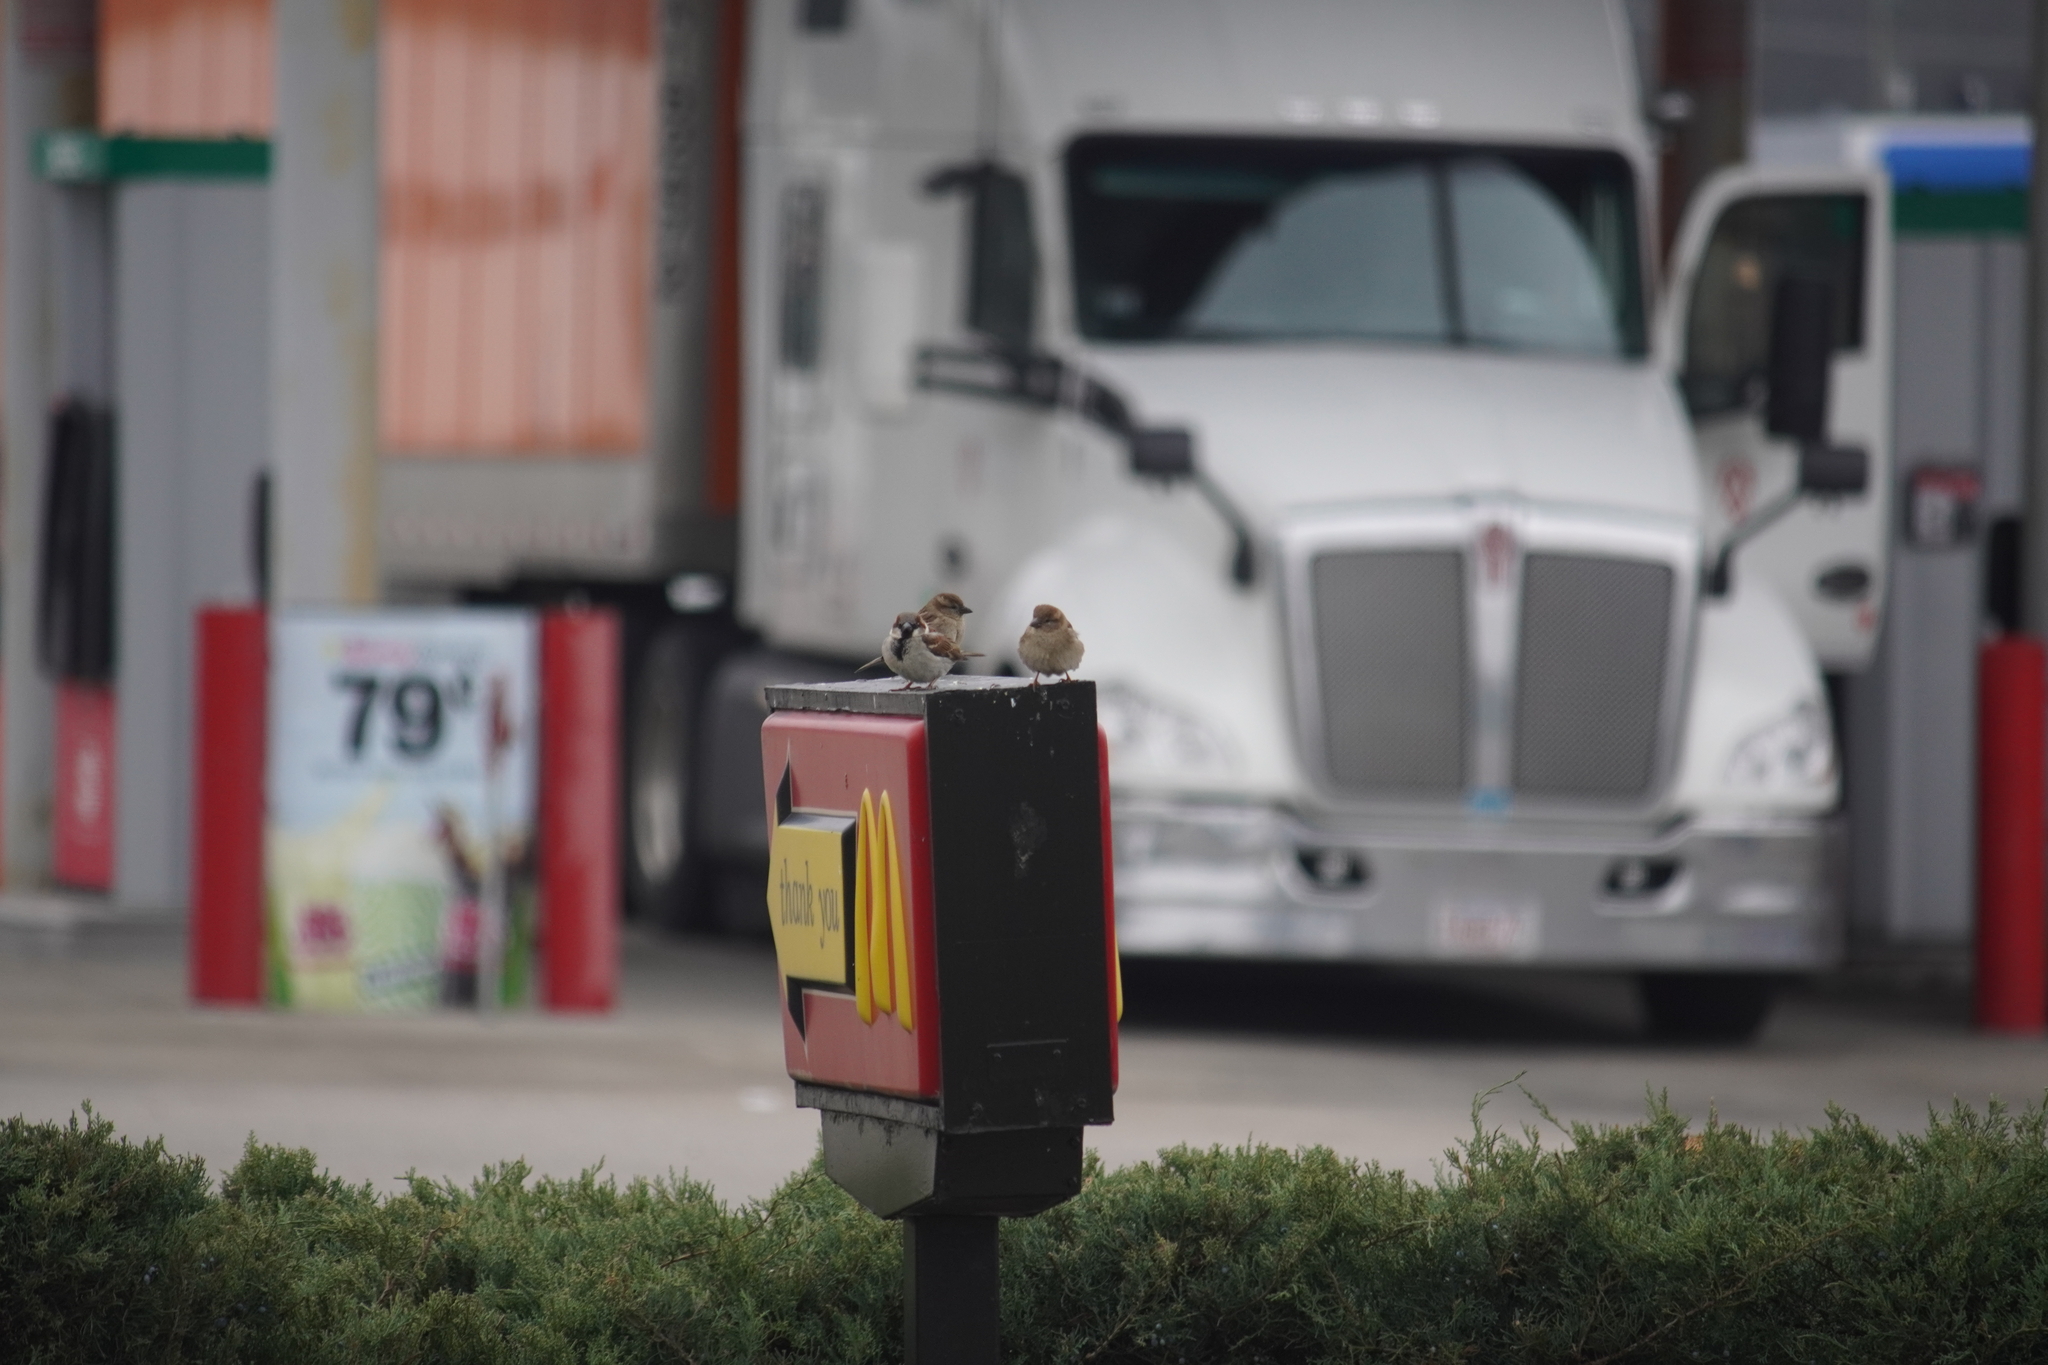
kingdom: Animalia
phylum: Chordata
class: Aves
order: Passeriformes
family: Passeridae
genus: Passer
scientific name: Passer domesticus
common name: House sparrow
